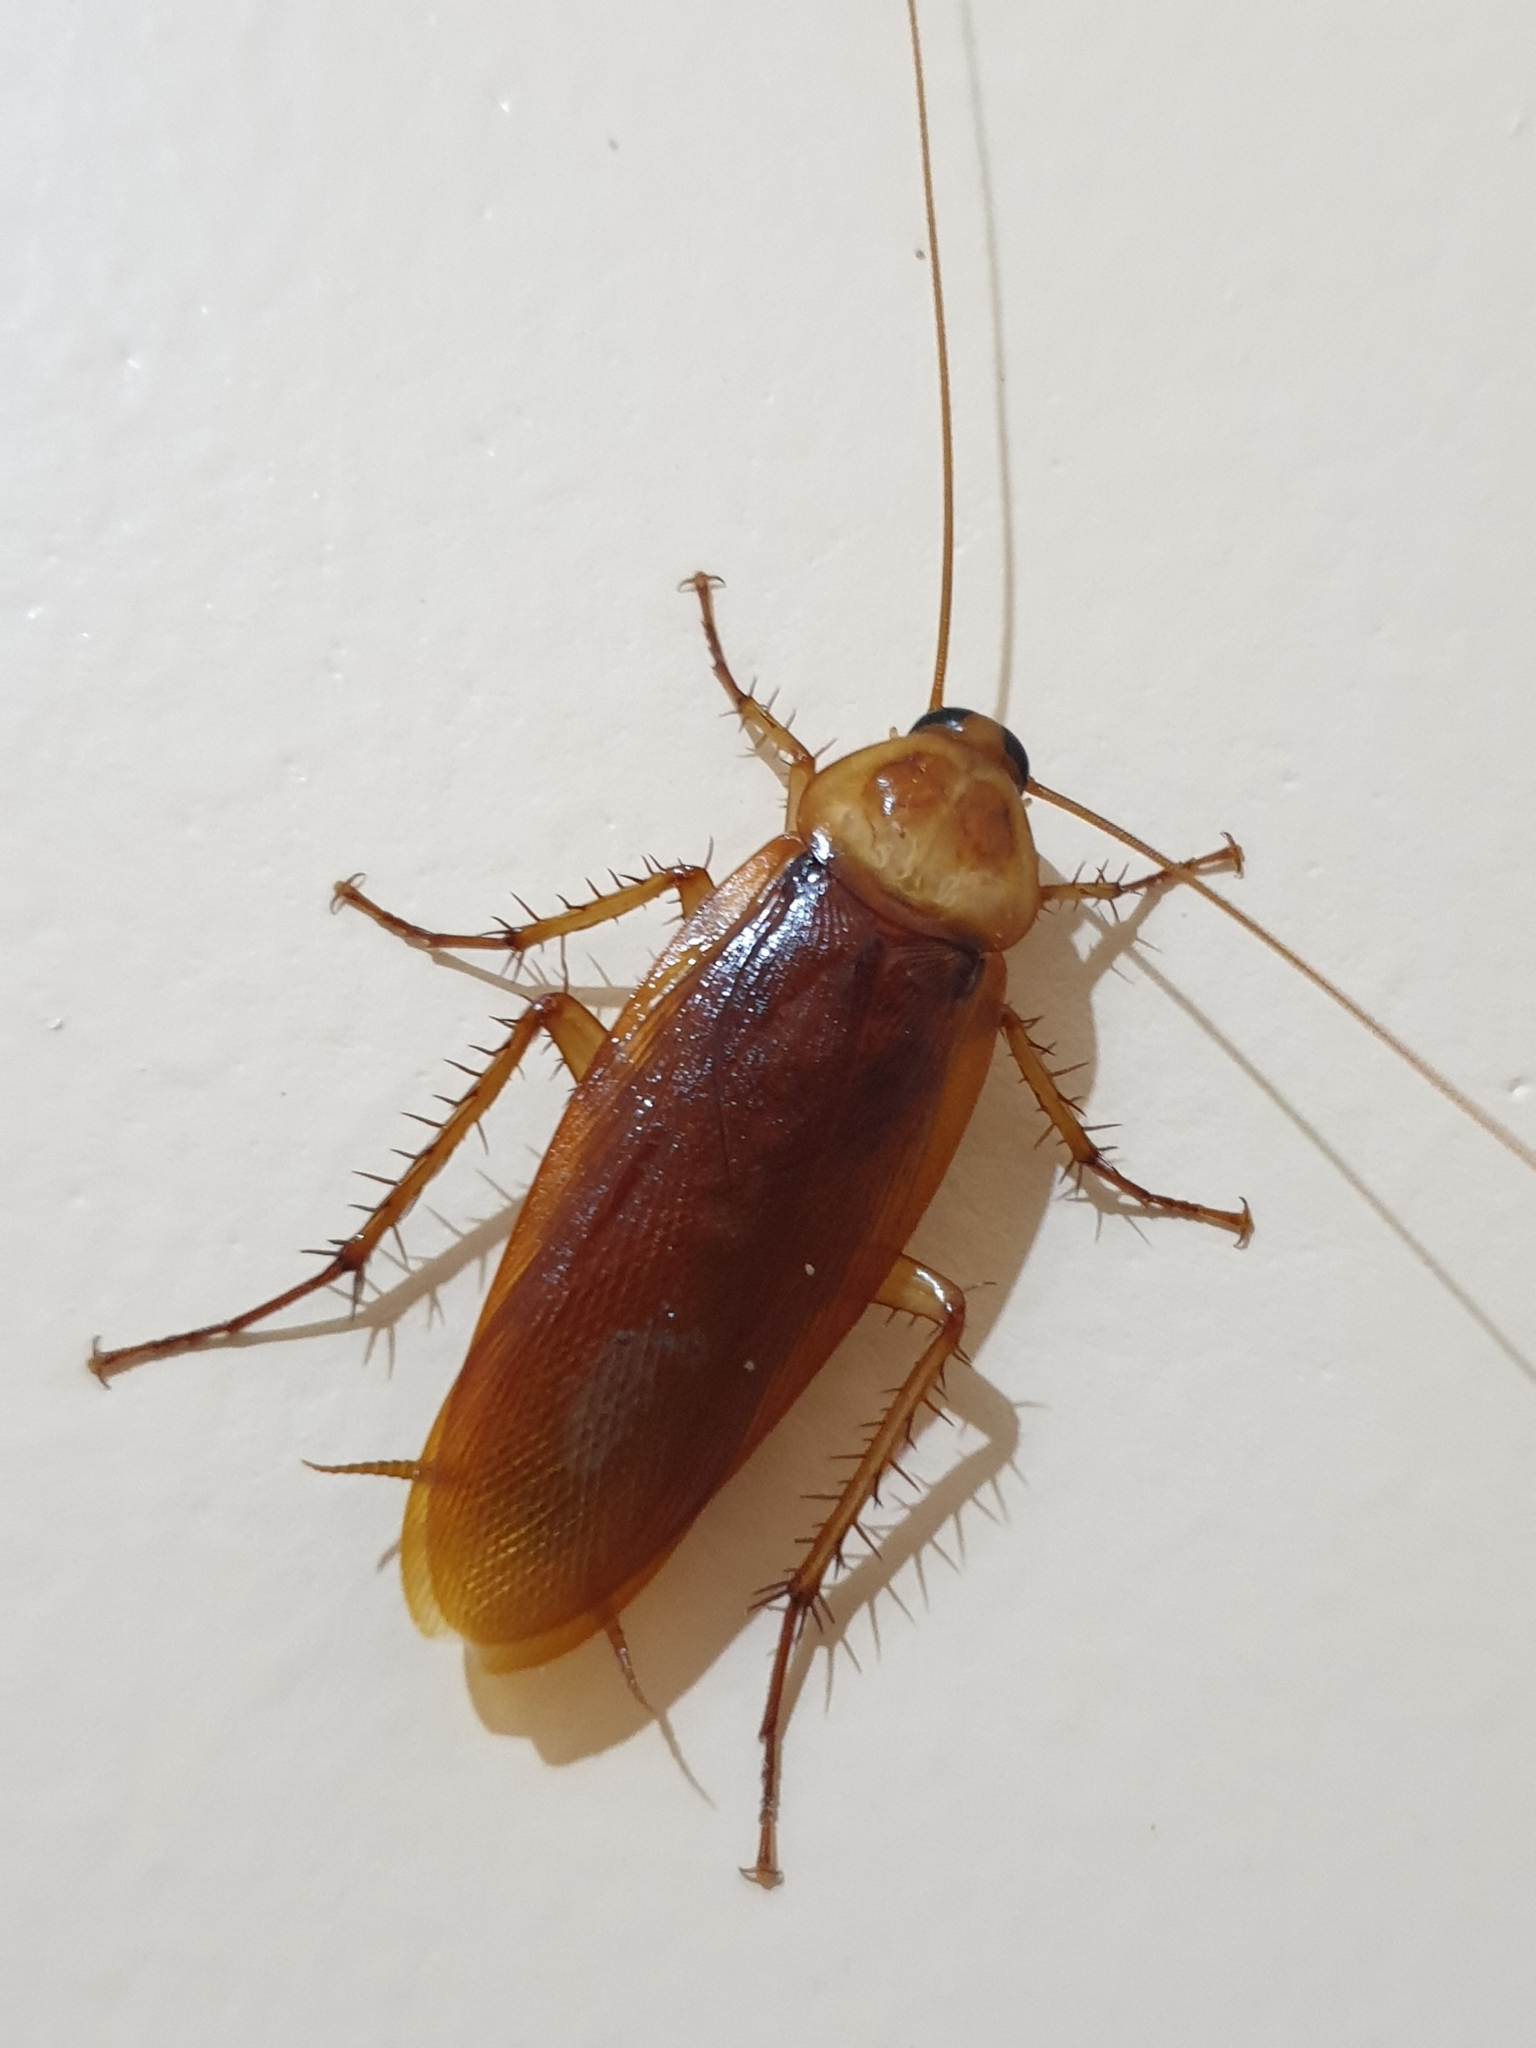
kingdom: Animalia
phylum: Arthropoda
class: Insecta
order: Blattodea
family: Blattidae
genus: Periplaneta
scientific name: Periplaneta americana
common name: American cockroach
